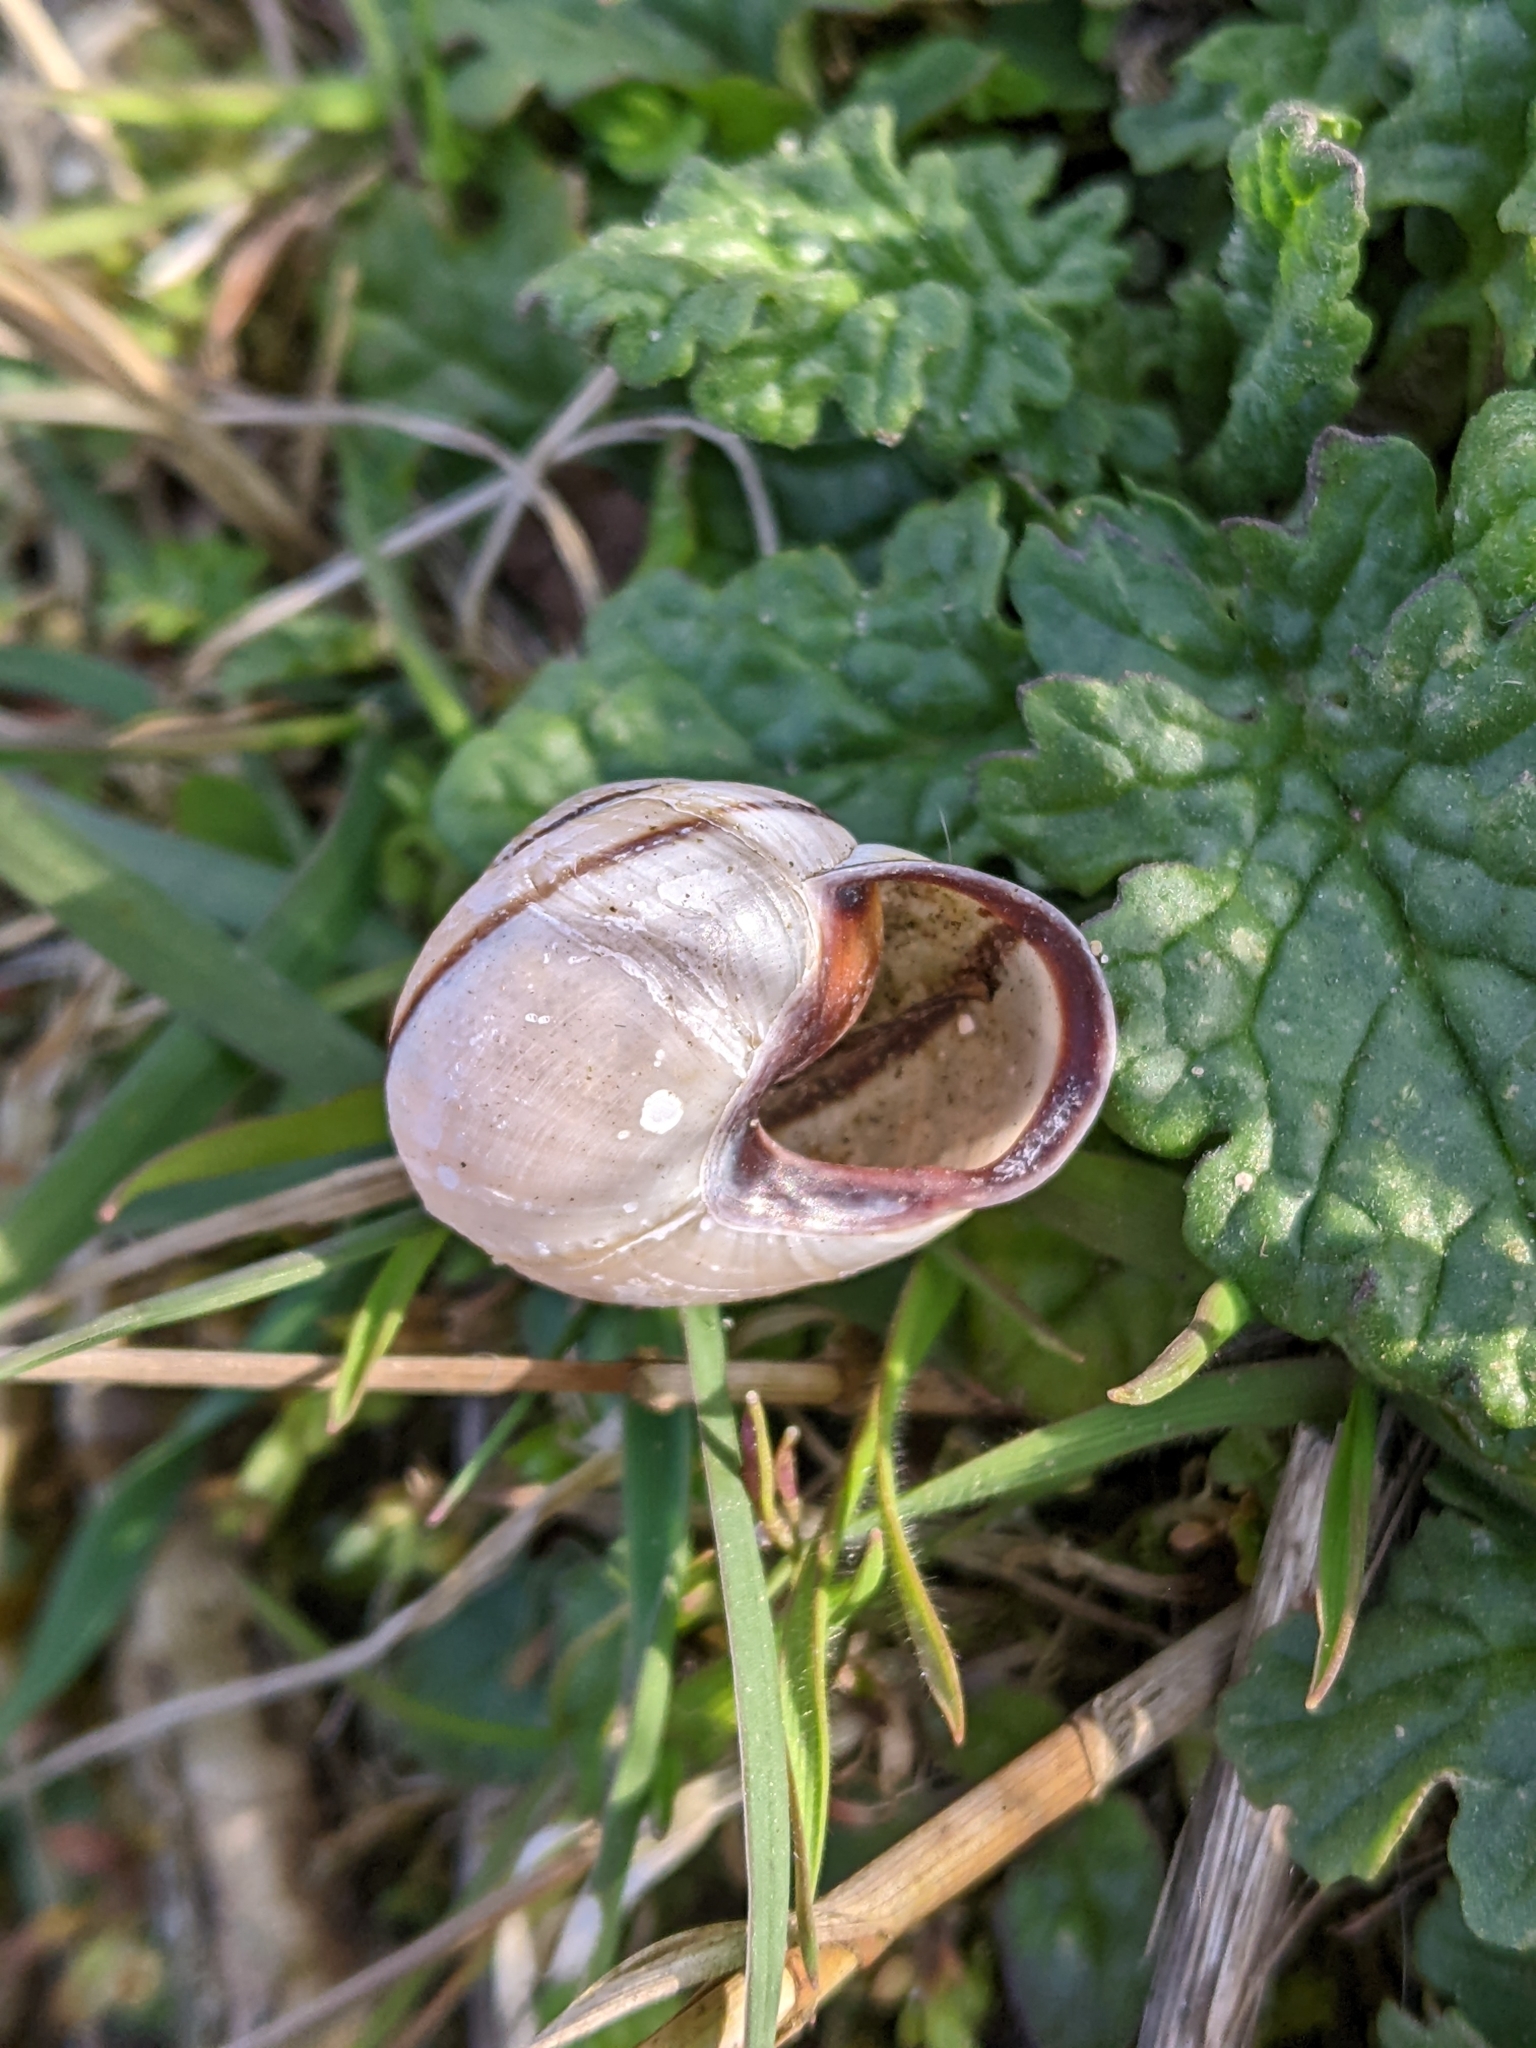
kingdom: Animalia
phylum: Mollusca
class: Gastropoda
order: Stylommatophora
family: Helicidae
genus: Cepaea
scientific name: Cepaea nemoralis
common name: Grovesnail
